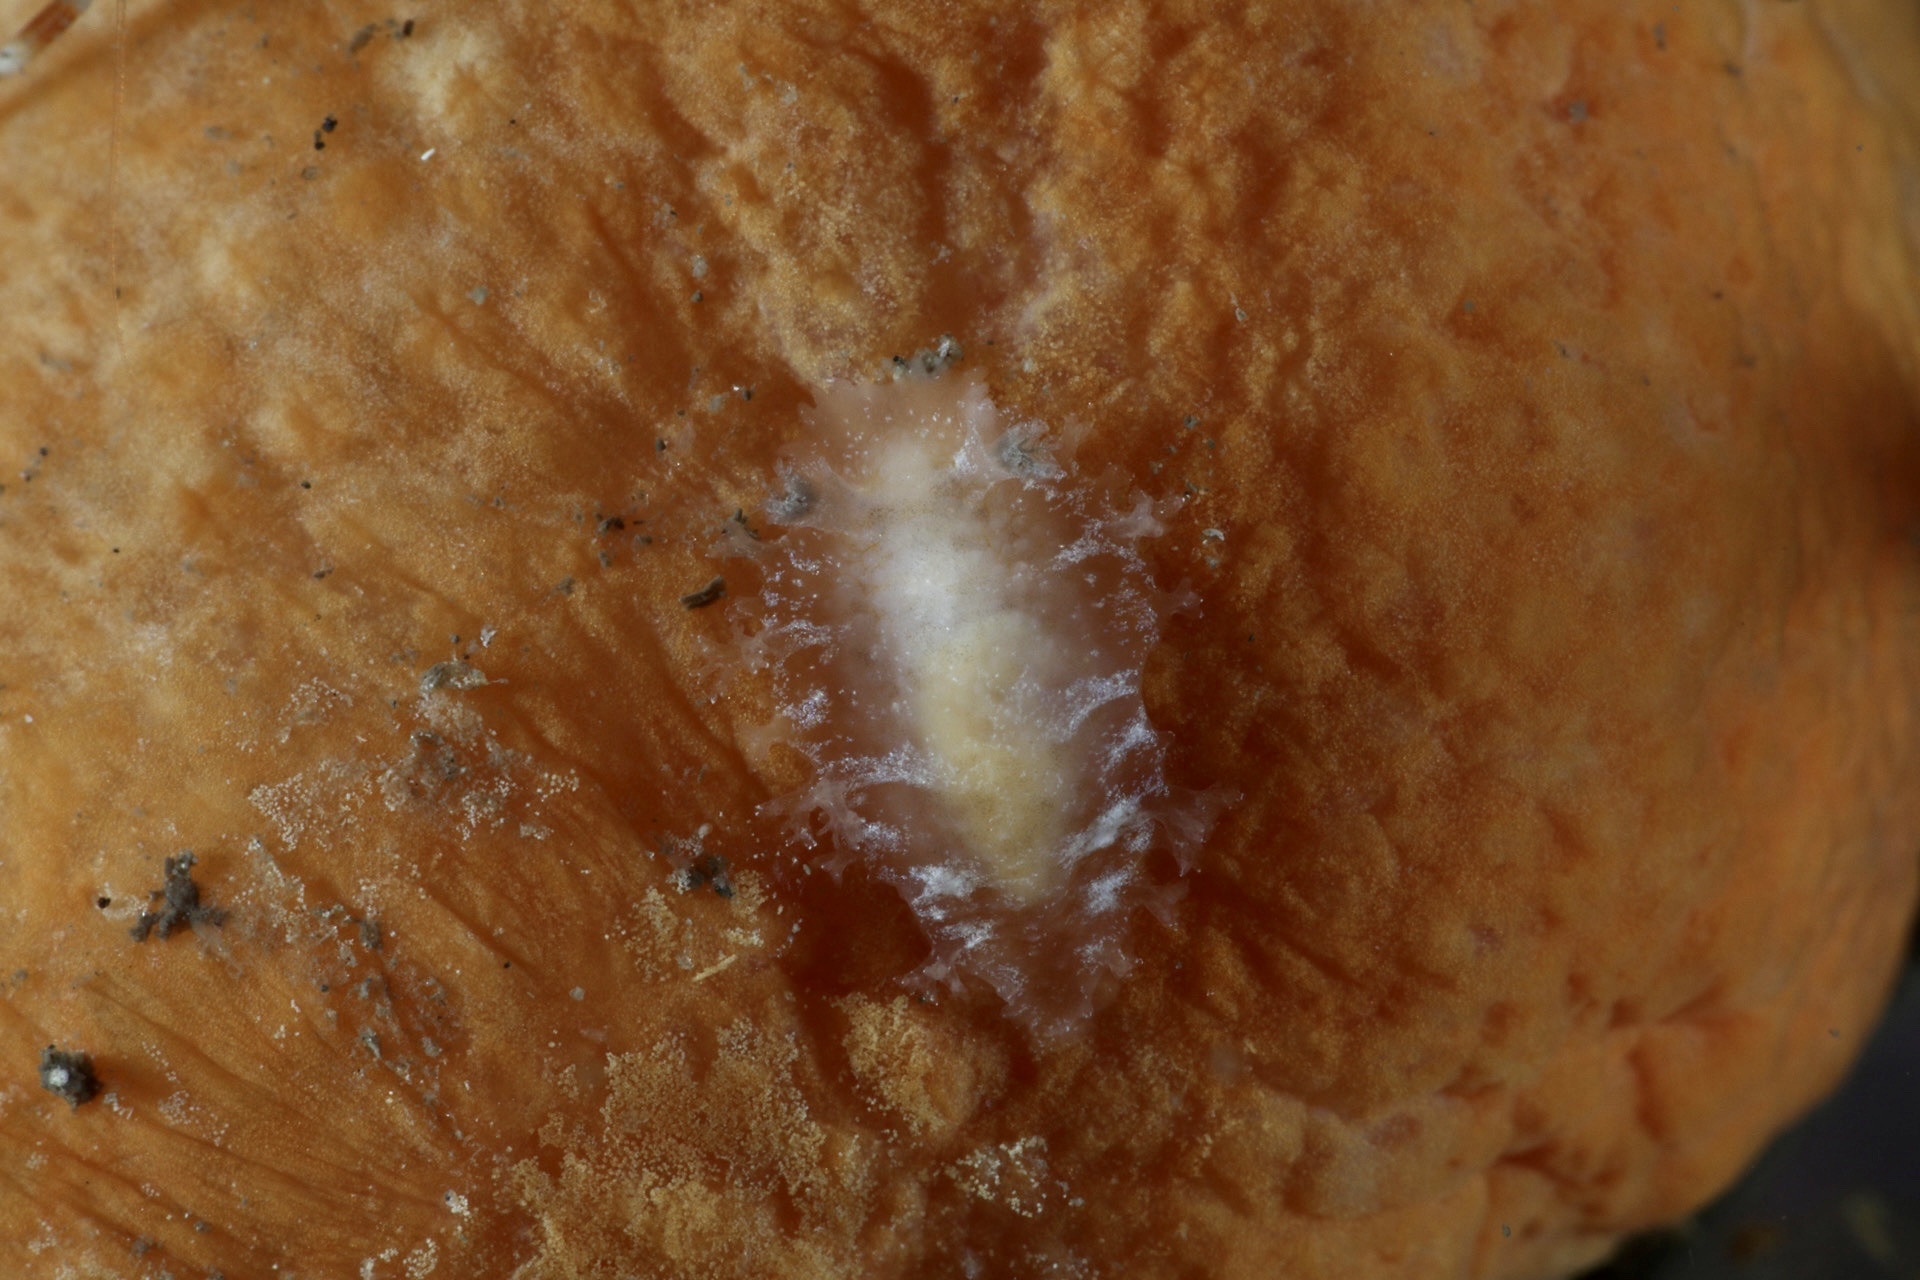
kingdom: Animalia
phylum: Mollusca
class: Gastropoda
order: Nudibranchia
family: Tritoniidae
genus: Tritonia
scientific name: Tritonia hombergii
